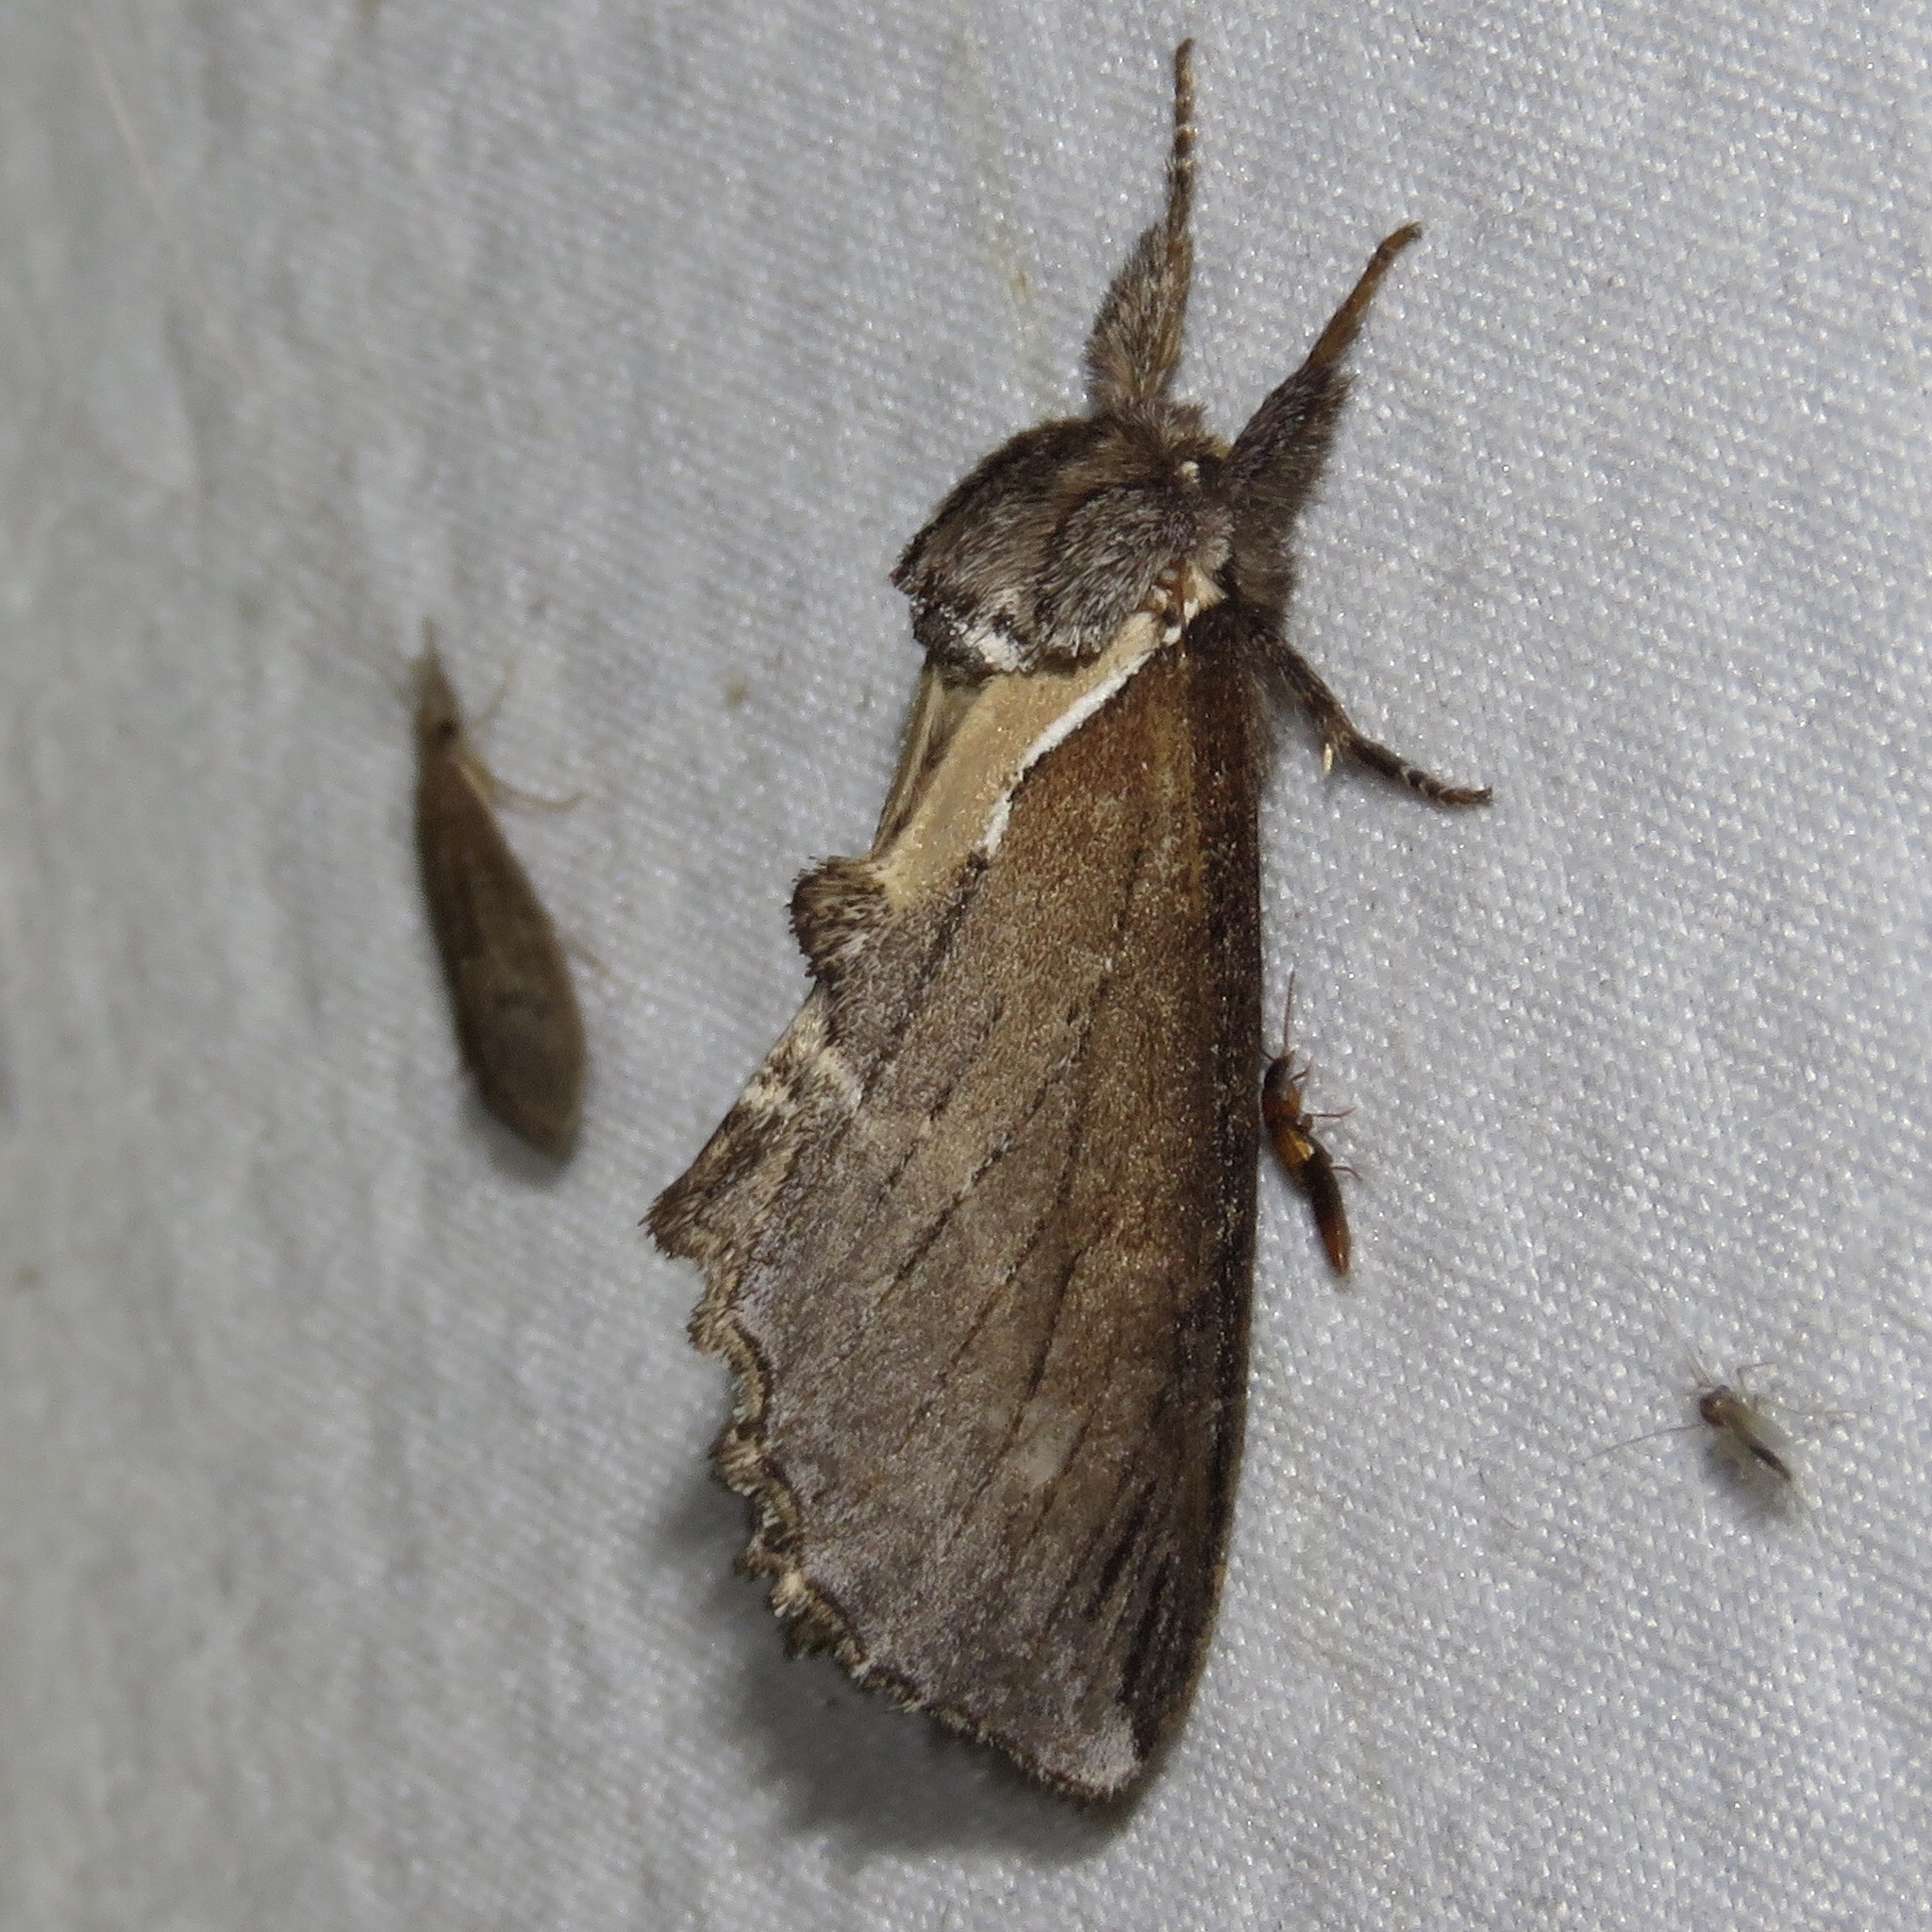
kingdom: Animalia
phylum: Arthropoda
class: Insecta
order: Lepidoptera
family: Notodontidae
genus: Pheosidea
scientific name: Pheosidea elegans
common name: Elegant prominent
